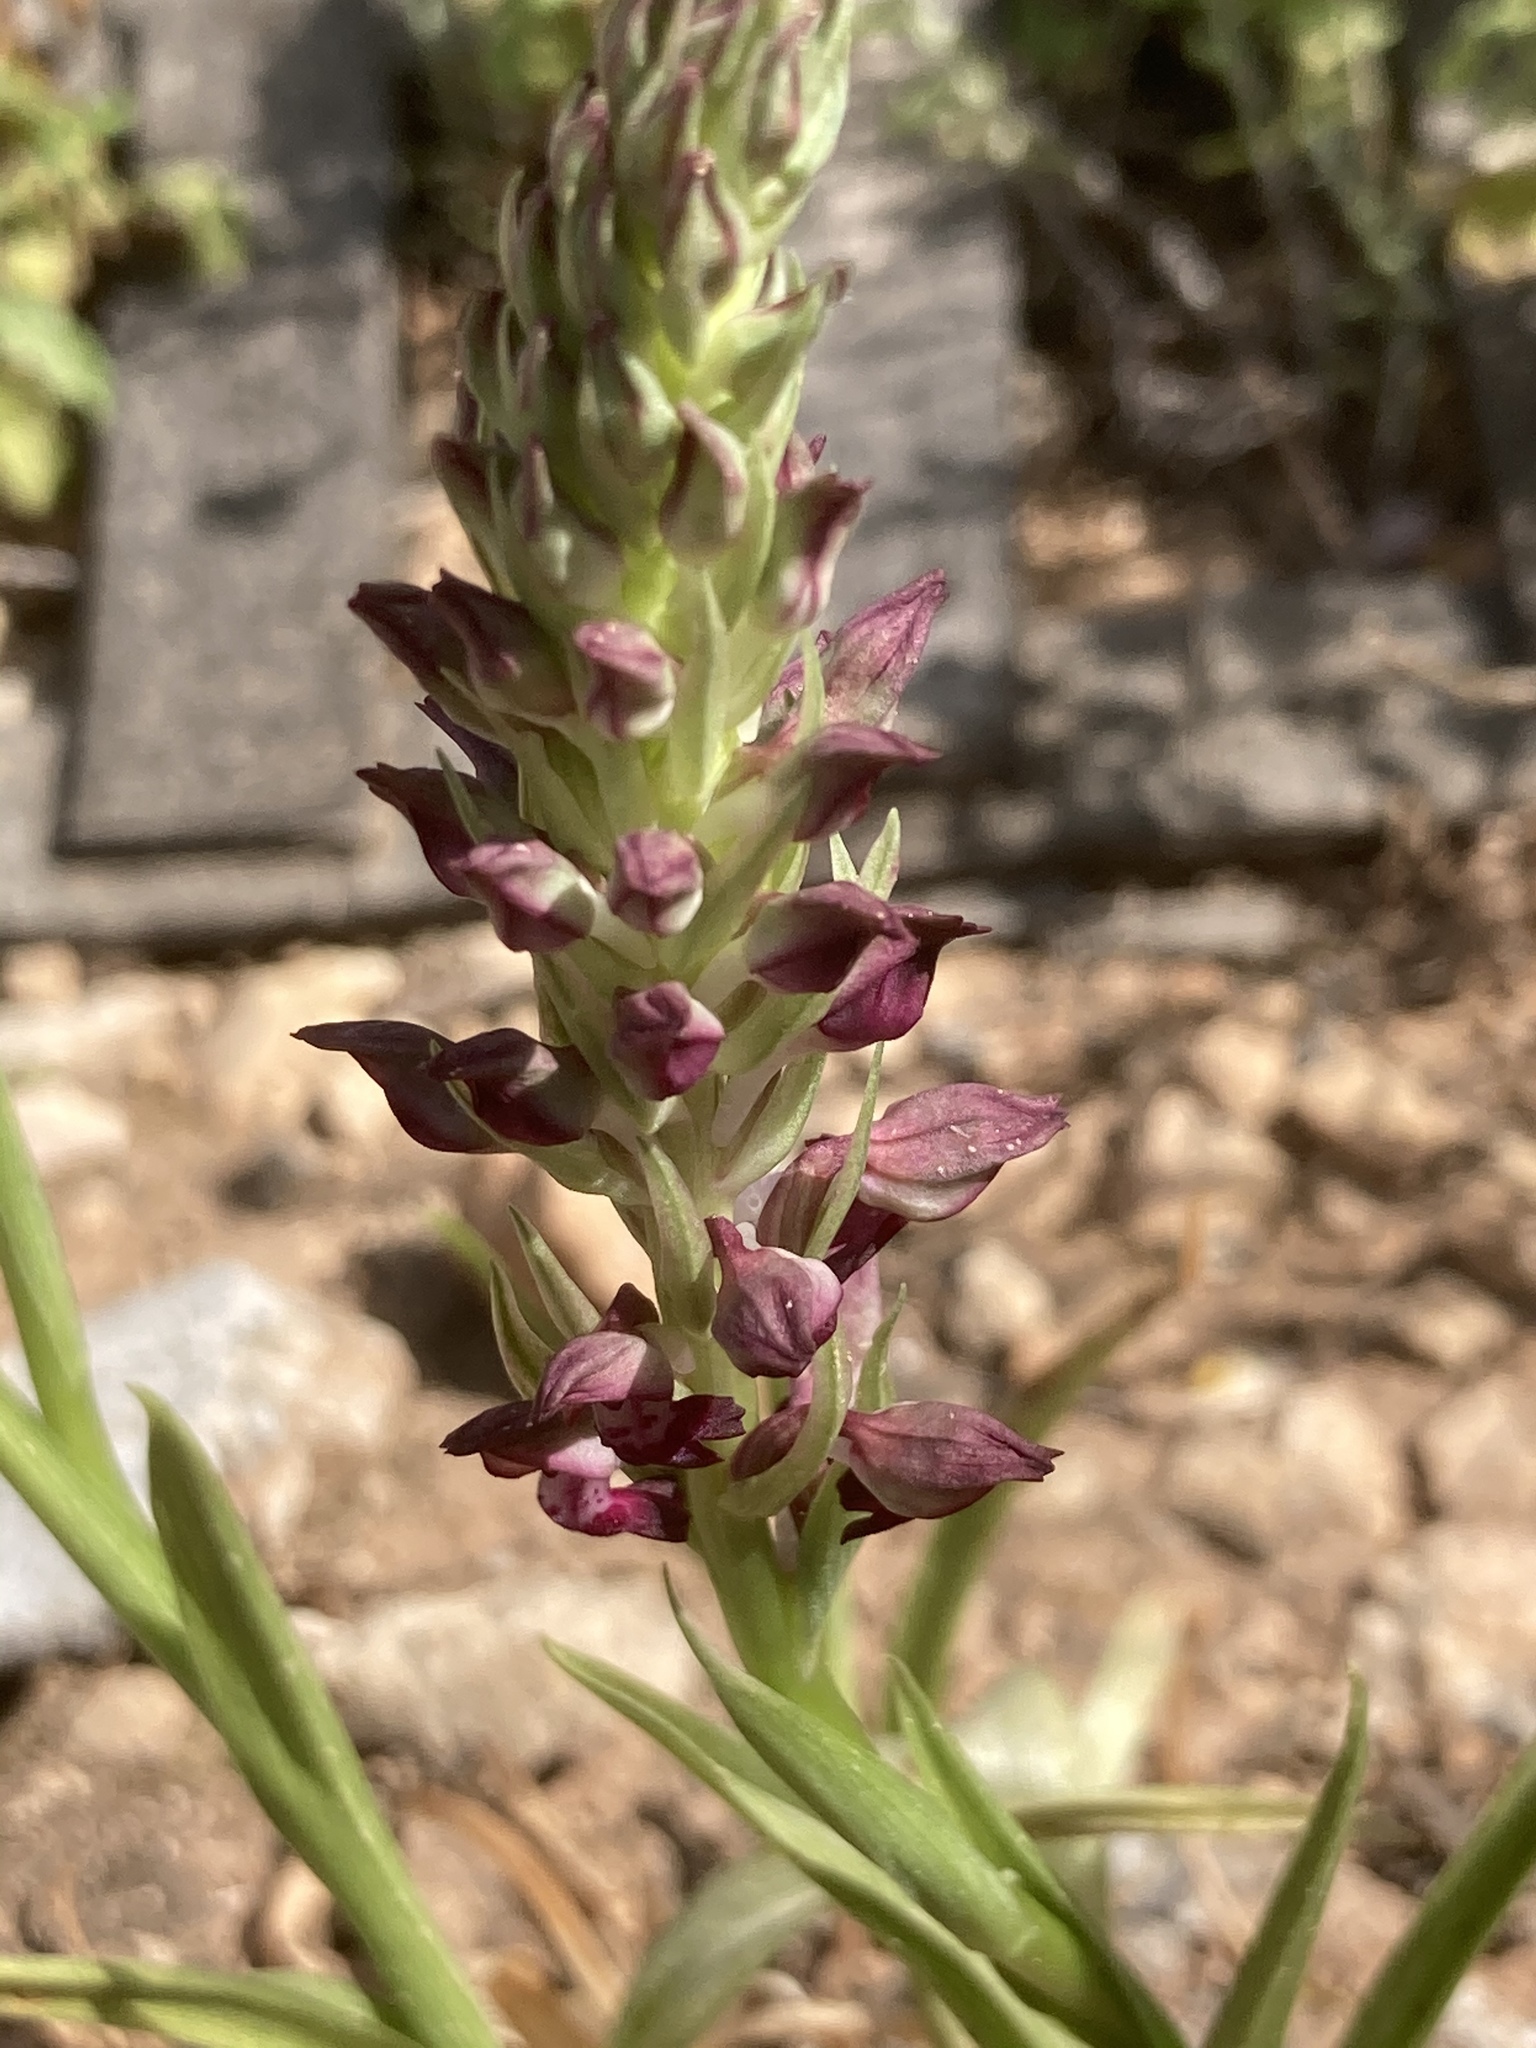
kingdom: Plantae
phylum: Tracheophyta
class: Liliopsida
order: Asparagales
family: Orchidaceae
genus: Anacamptis
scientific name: Anacamptis coriophora
